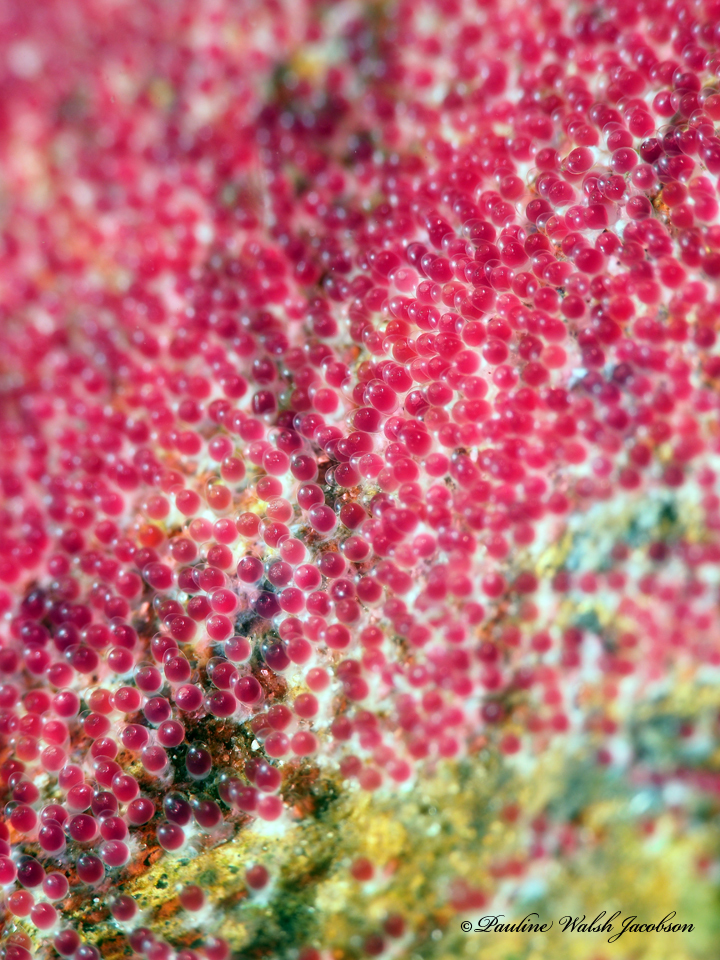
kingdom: Animalia
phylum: Chordata
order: Perciformes
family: Pomacentridae
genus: Abudefduf
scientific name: Abudefduf saxatilis
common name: Sergeant major
